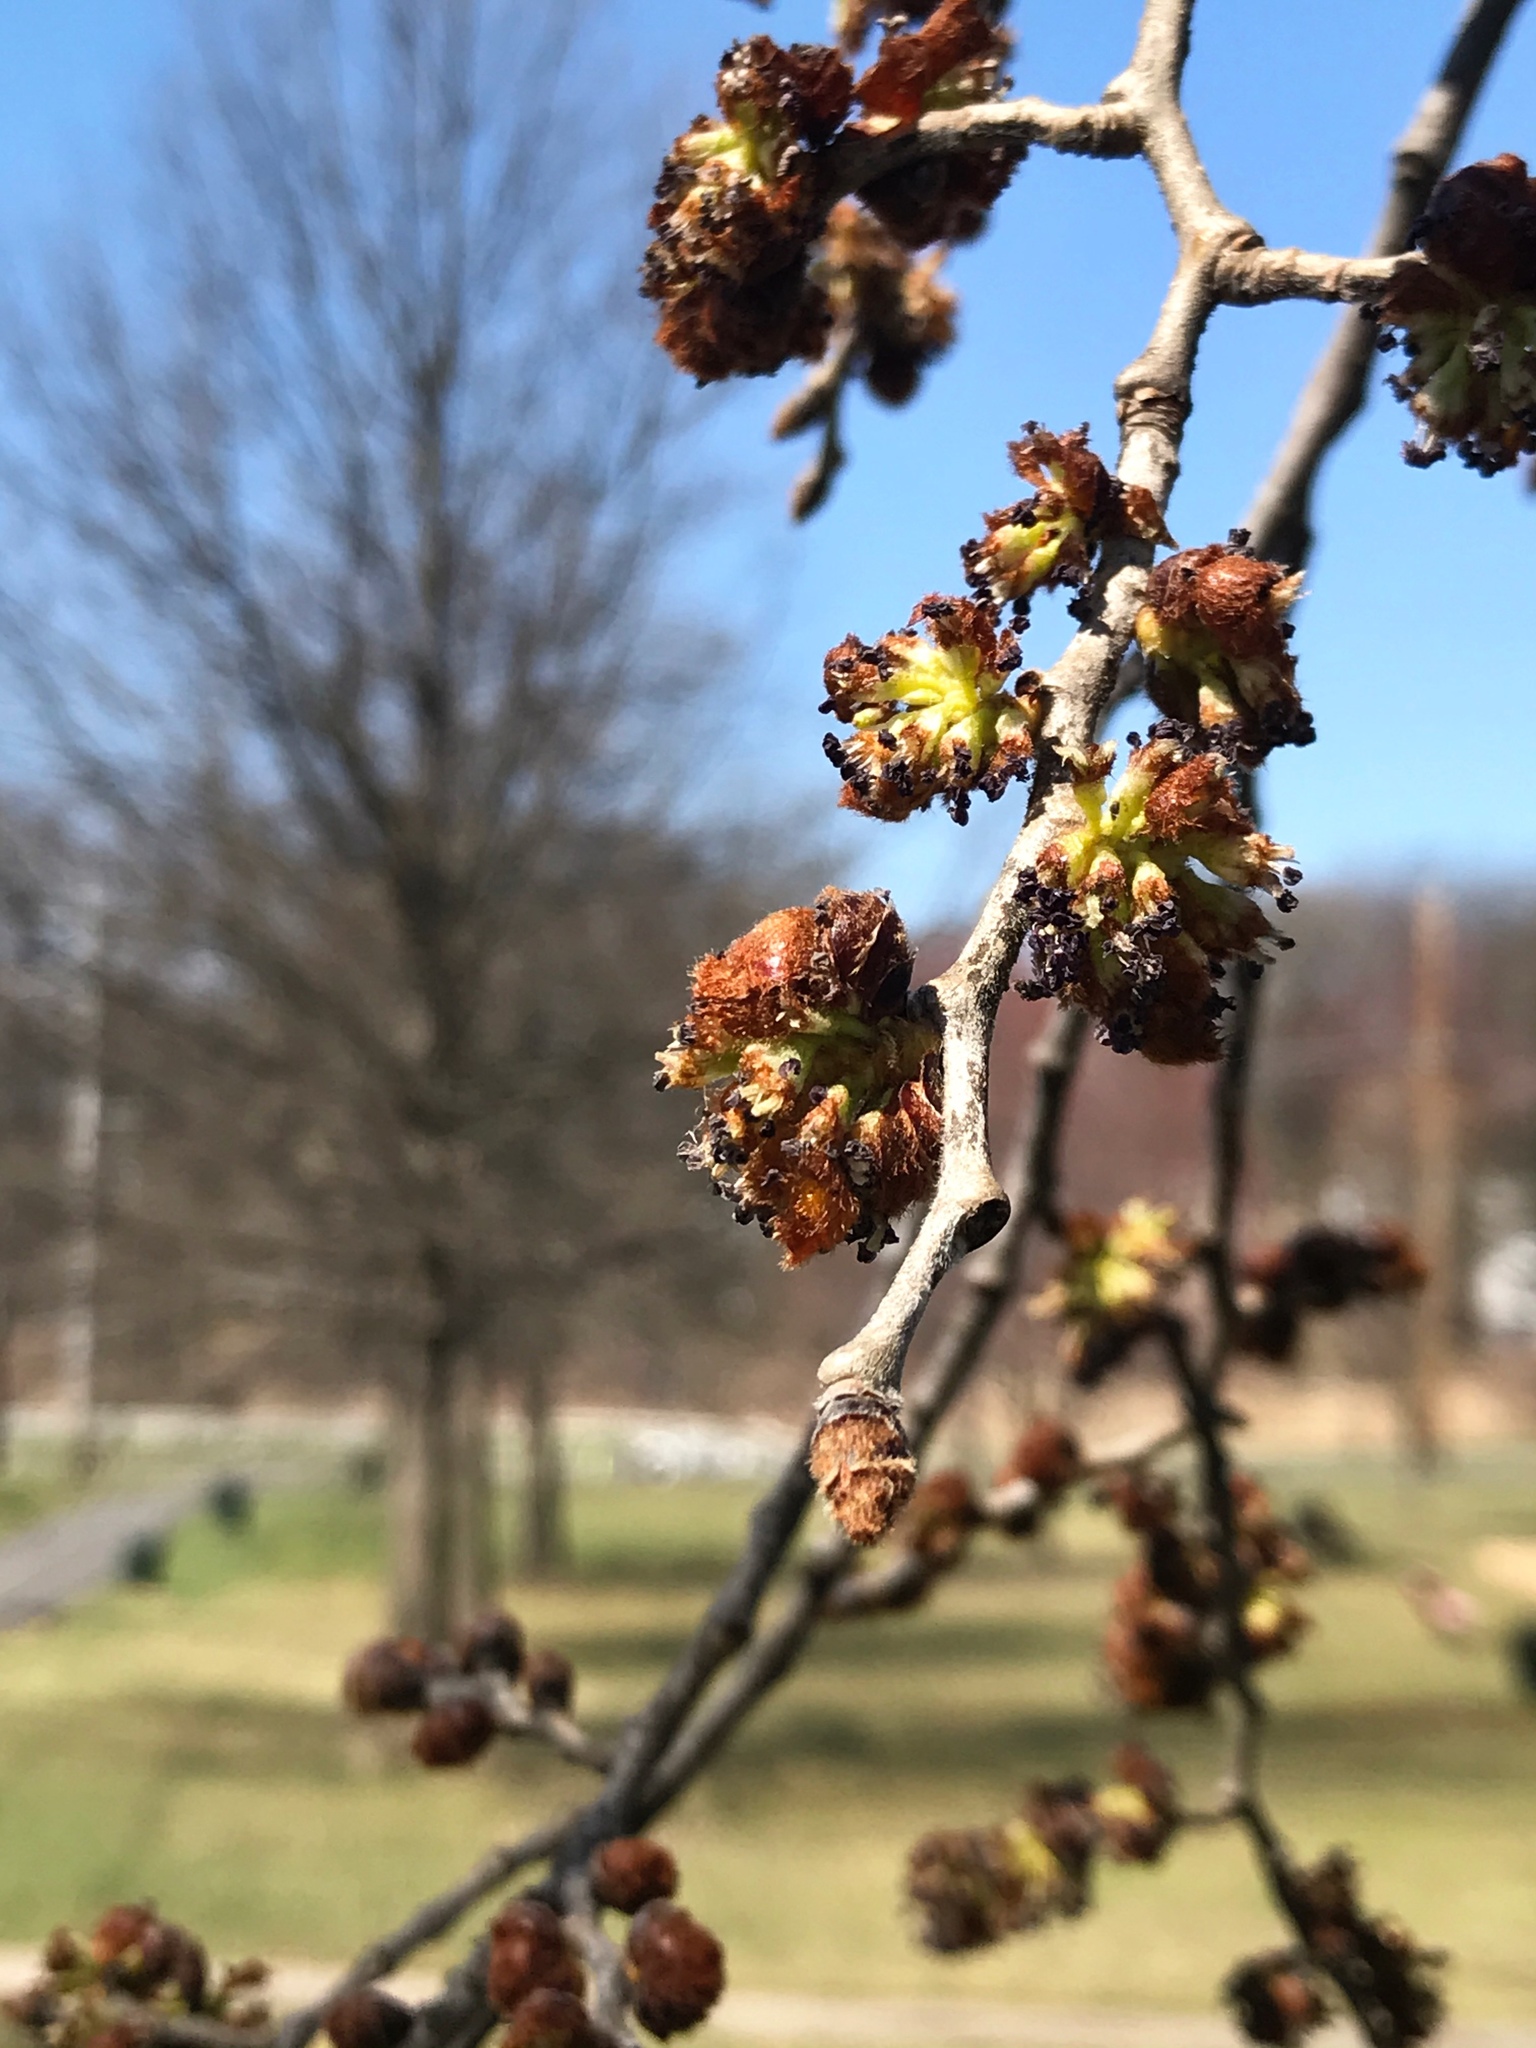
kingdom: Plantae
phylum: Tracheophyta
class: Magnoliopsida
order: Rosales
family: Ulmaceae
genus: Ulmus
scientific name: Ulmus rubra
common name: Slippery elm
